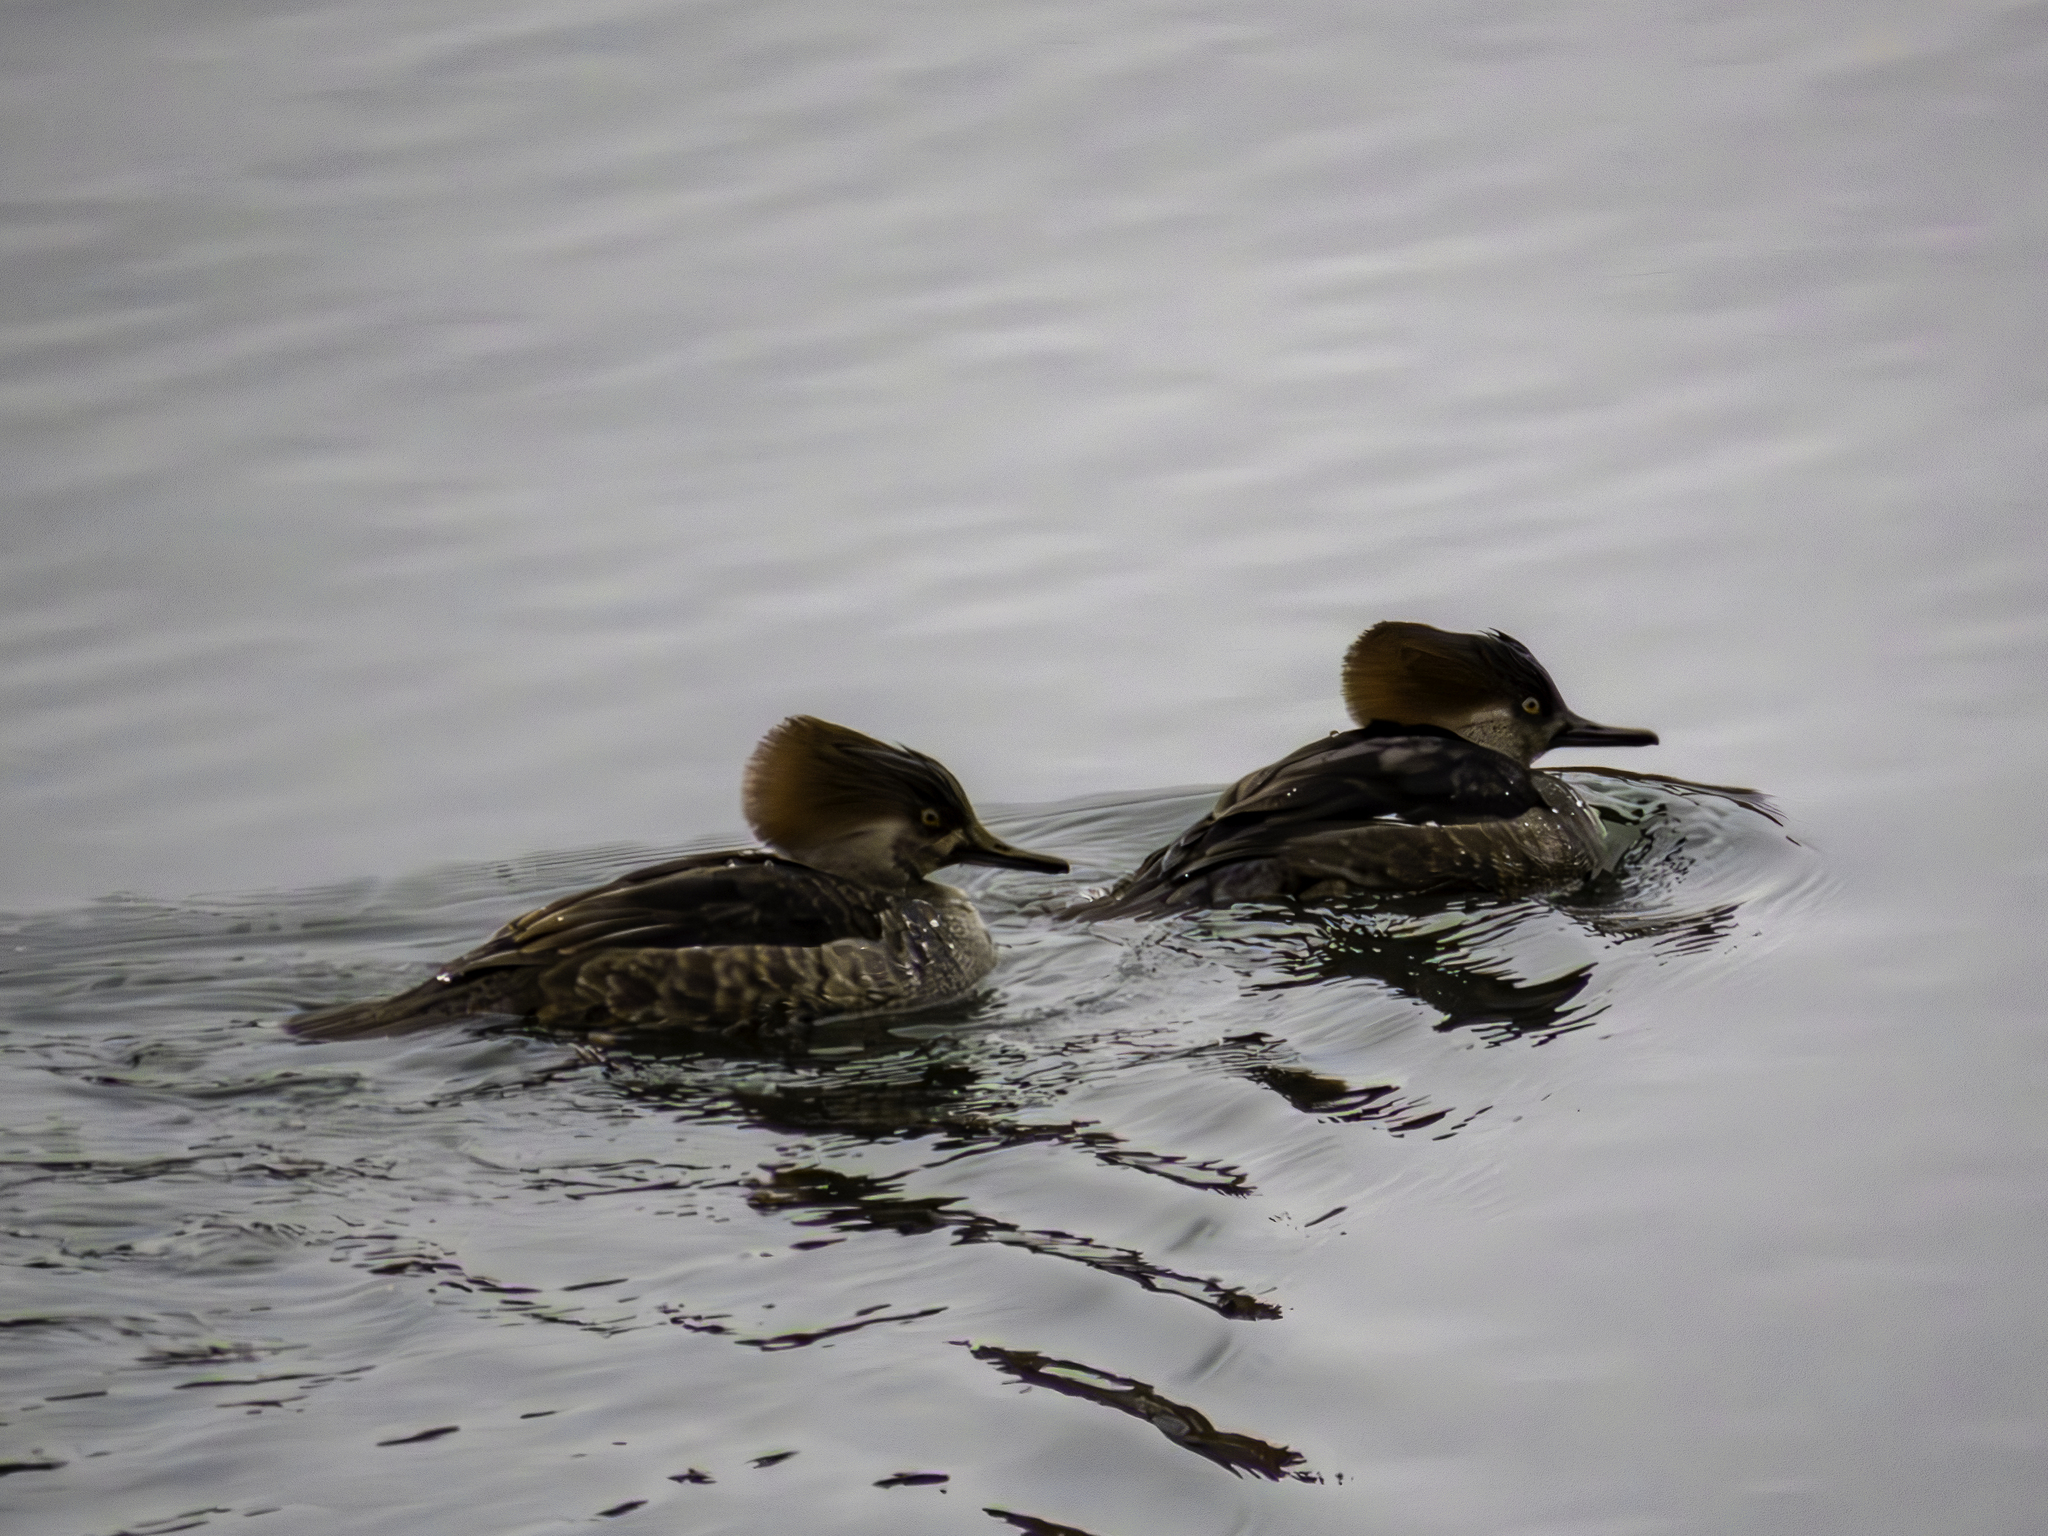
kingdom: Animalia
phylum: Chordata
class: Aves
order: Anseriformes
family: Anatidae
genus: Lophodytes
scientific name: Lophodytes cucullatus
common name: Hooded merganser
